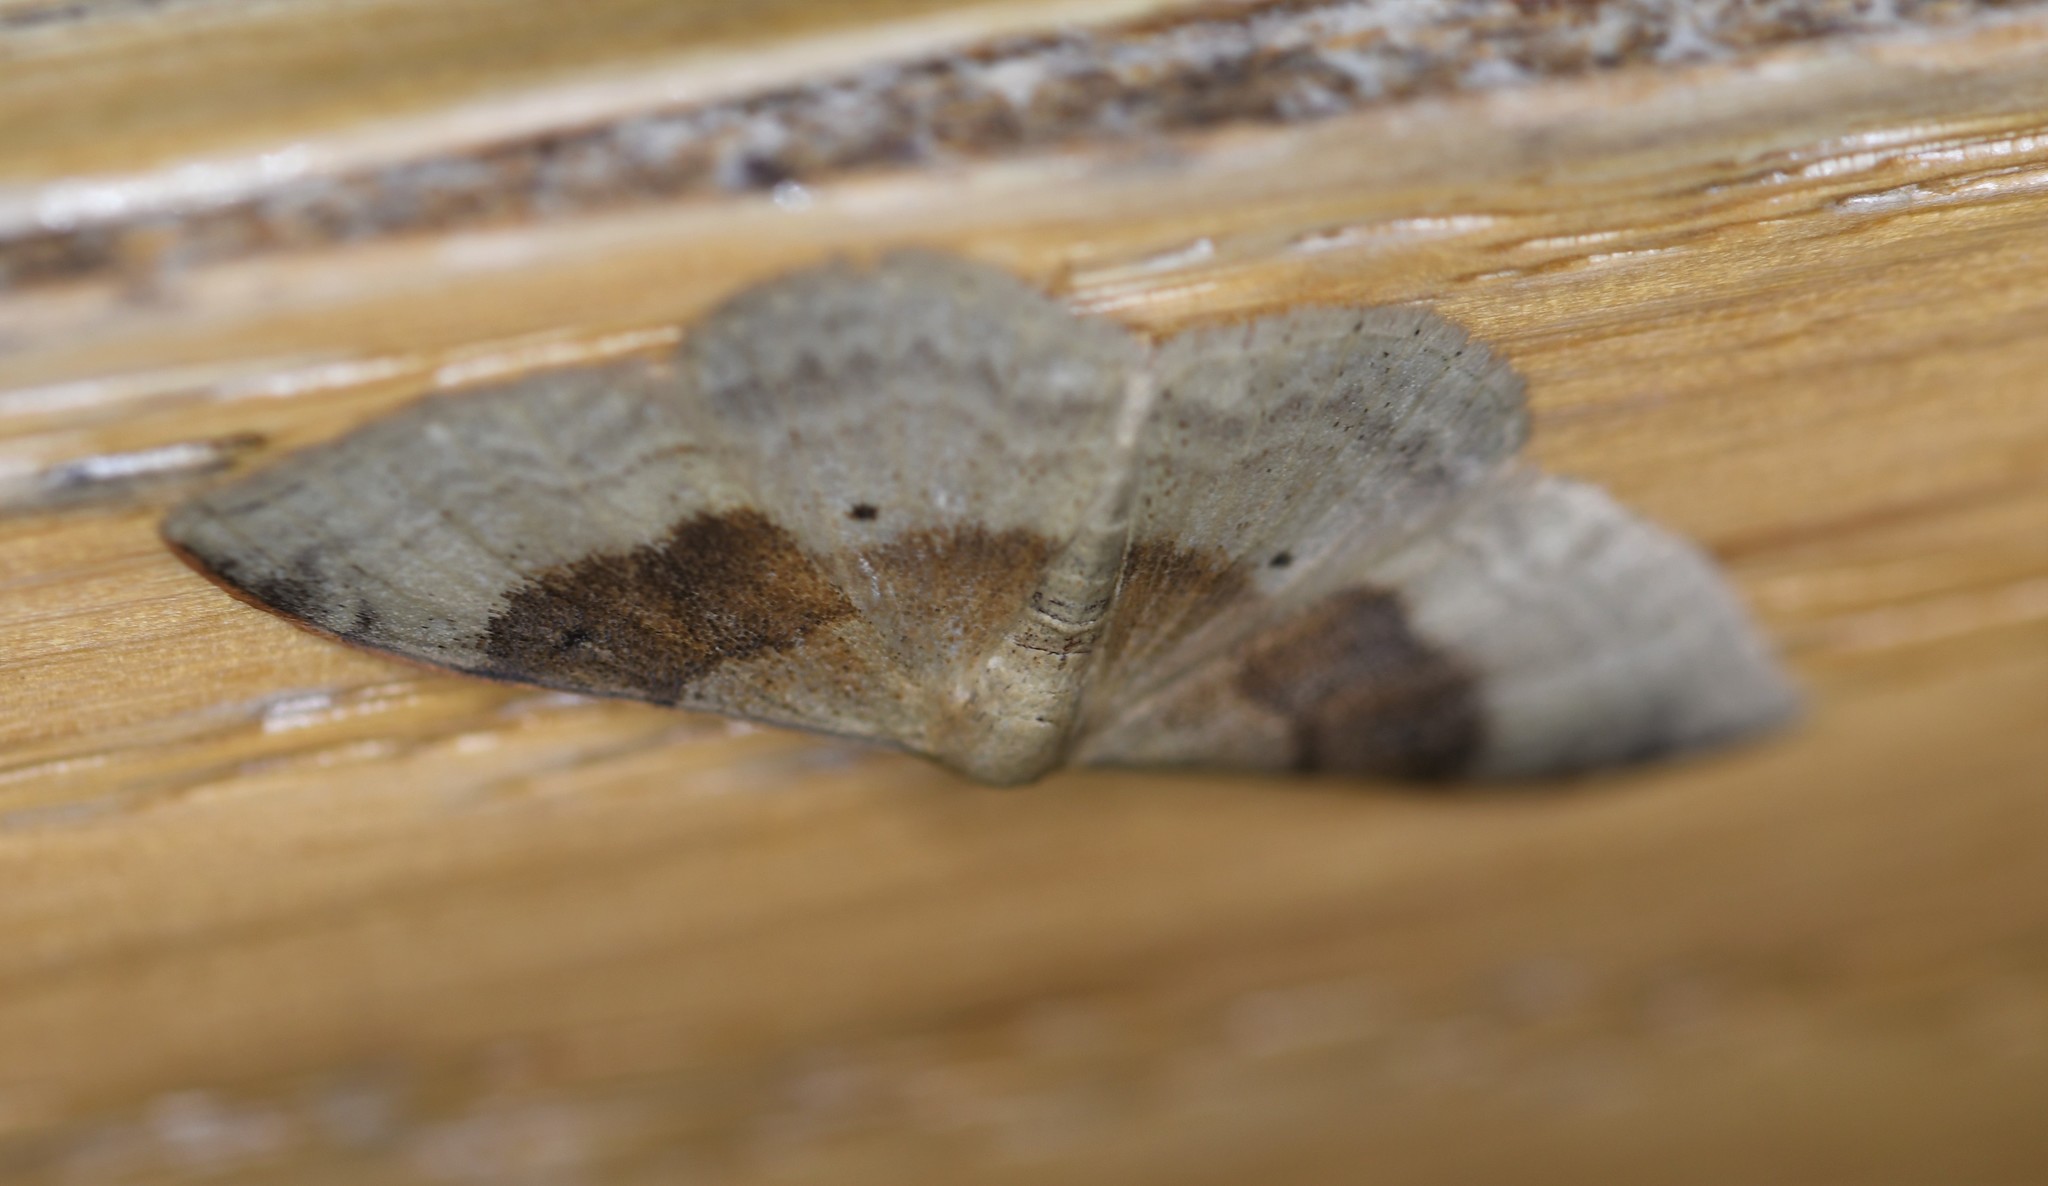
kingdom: Animalia
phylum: Arthropoda
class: Insecta
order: Lepidoptera
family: Geometridae
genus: Idaea
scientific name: Idaea degeneraria
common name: Portland ribbon wave
